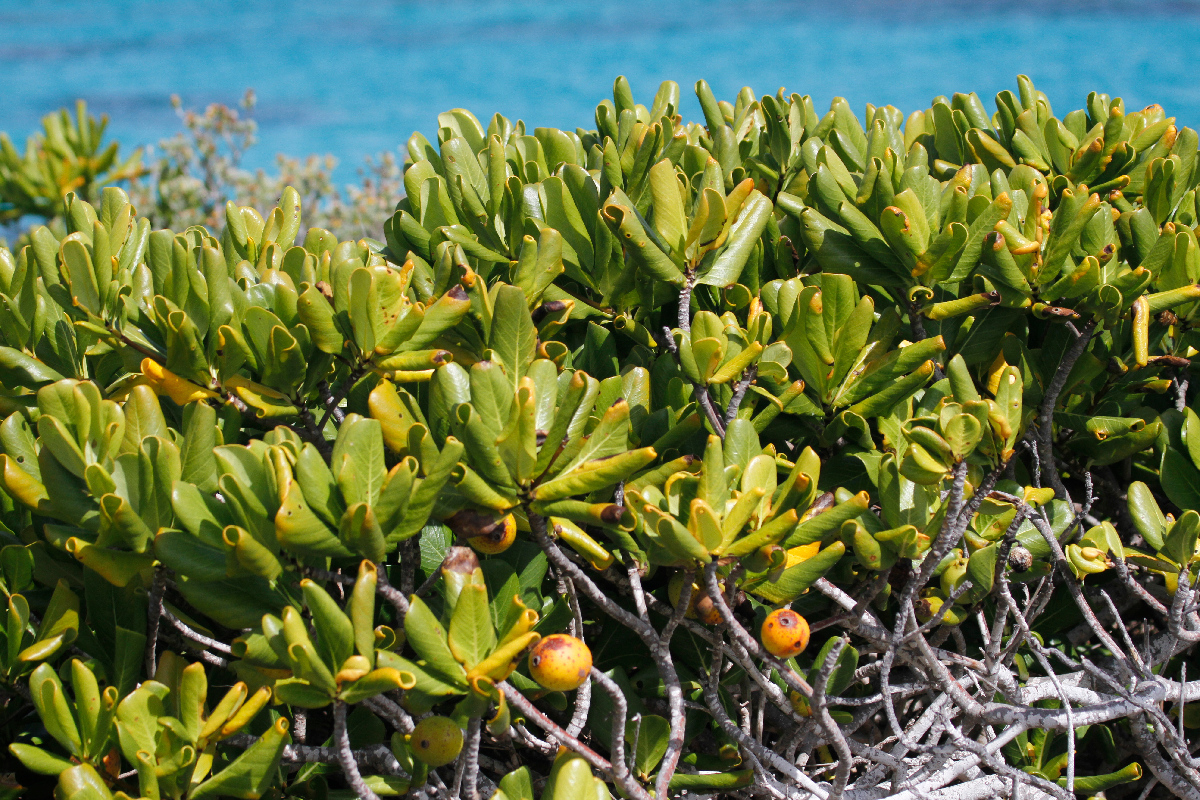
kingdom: Plantae
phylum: Tracheophyta
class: Magnoliopsida
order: Gentianales
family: Rubiaceae
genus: Casasia
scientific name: Casasia clusiifolia
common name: Seven-year apple
